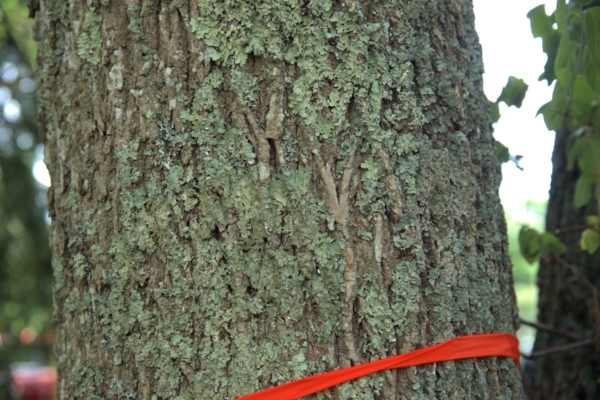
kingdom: Plantae
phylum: Tracheophyta
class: Magnoliopsida
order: Lamiales
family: Oleaceae
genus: Fraxinus
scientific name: Fraxinus americana
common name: White ash
